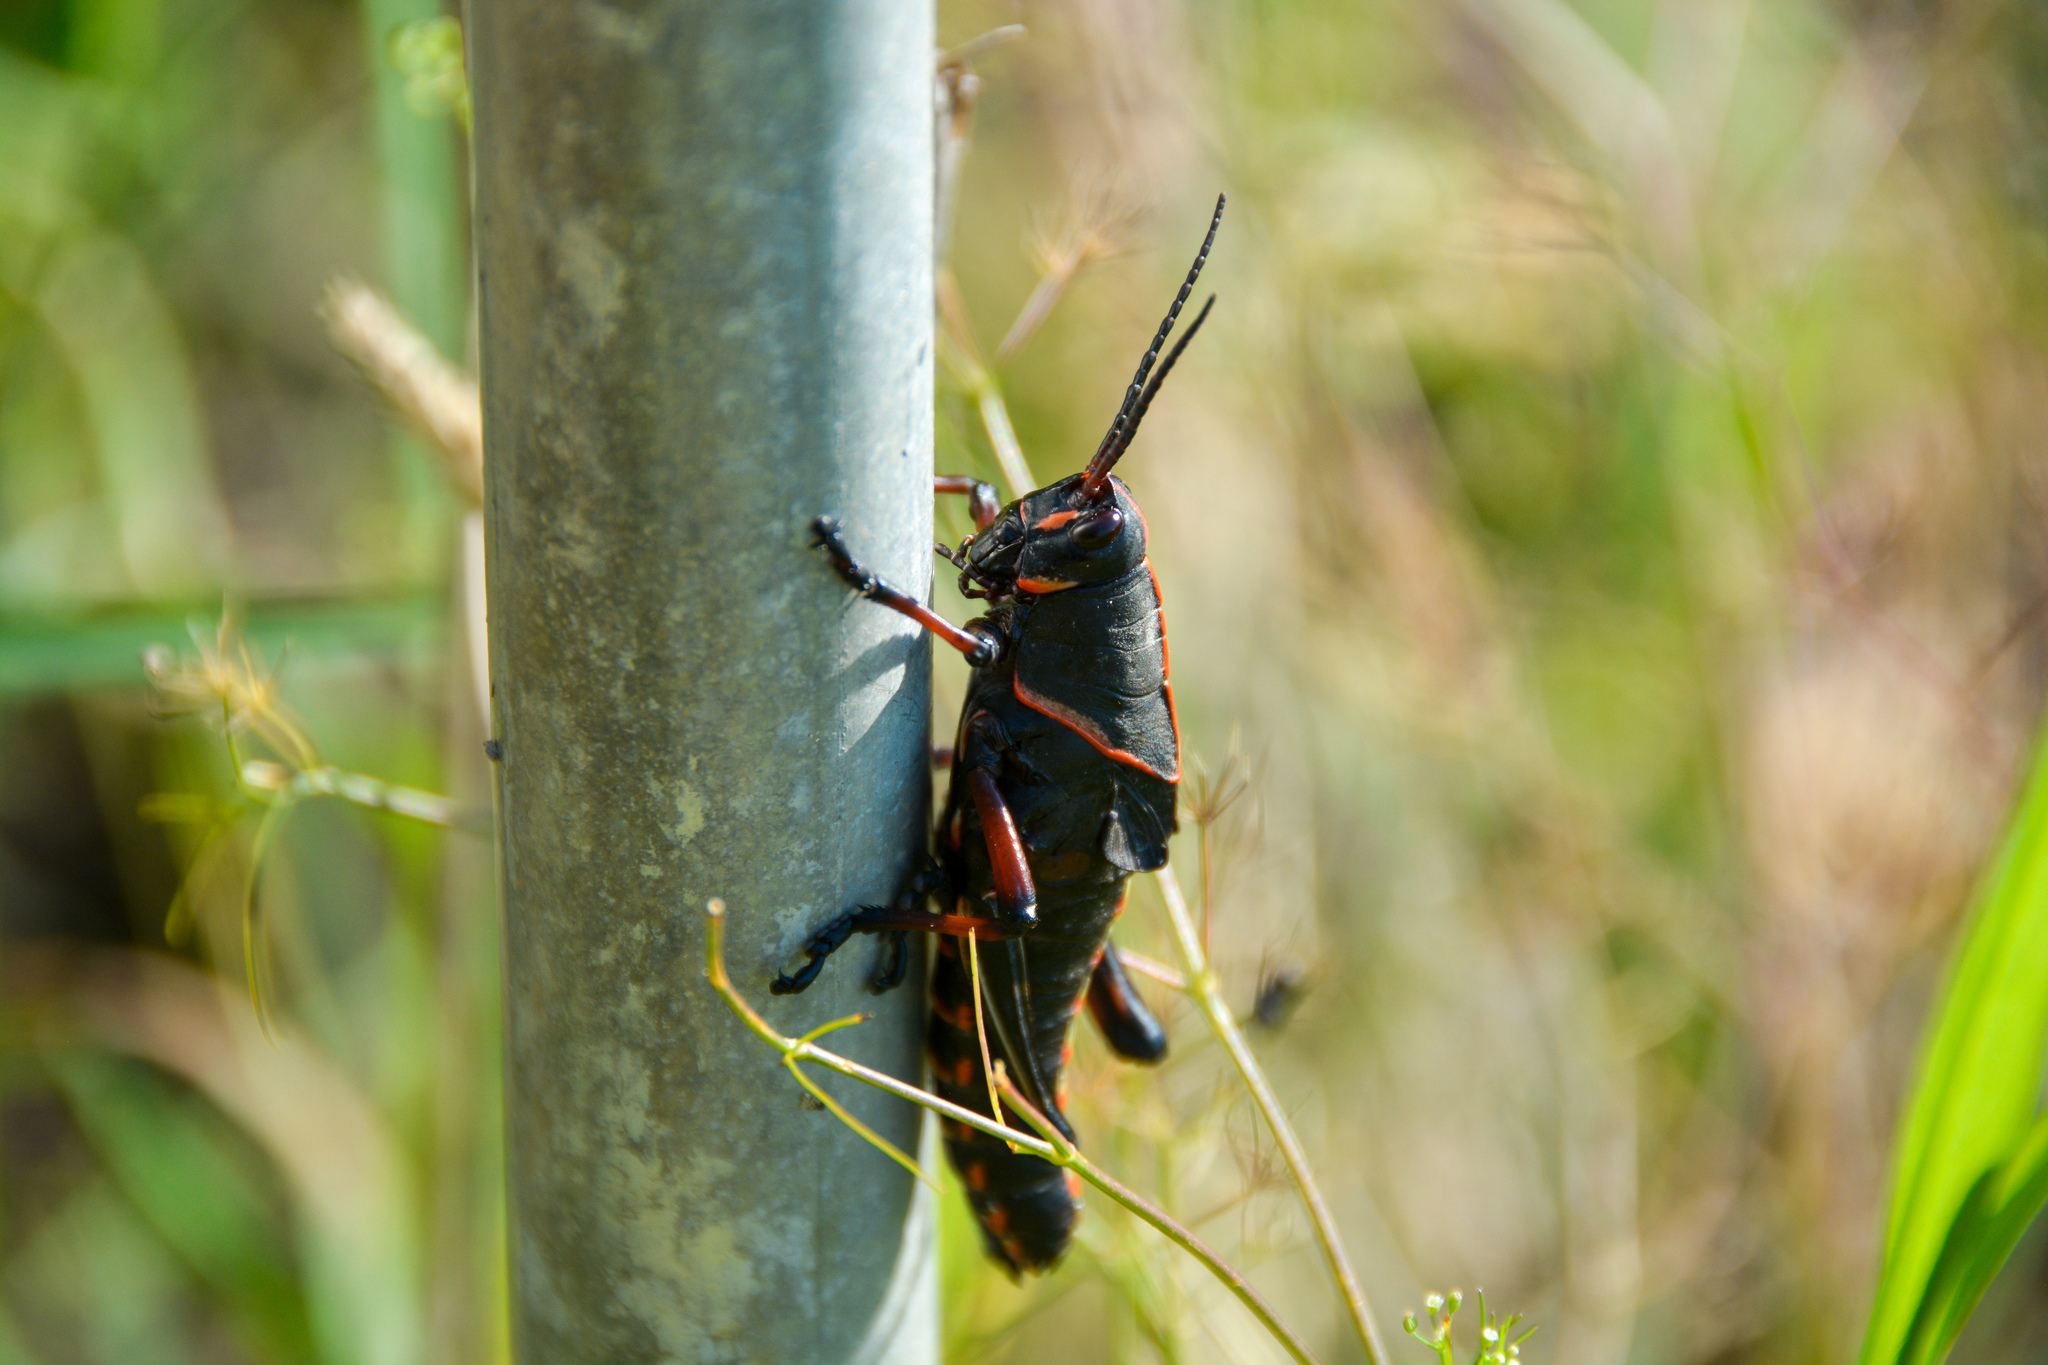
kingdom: Animalia
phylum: Arthropoda
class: Insecta
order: Orthoptera
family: Romaleidae
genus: Romalea
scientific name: Romalea microptera
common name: Eastern lubber grasshopper
